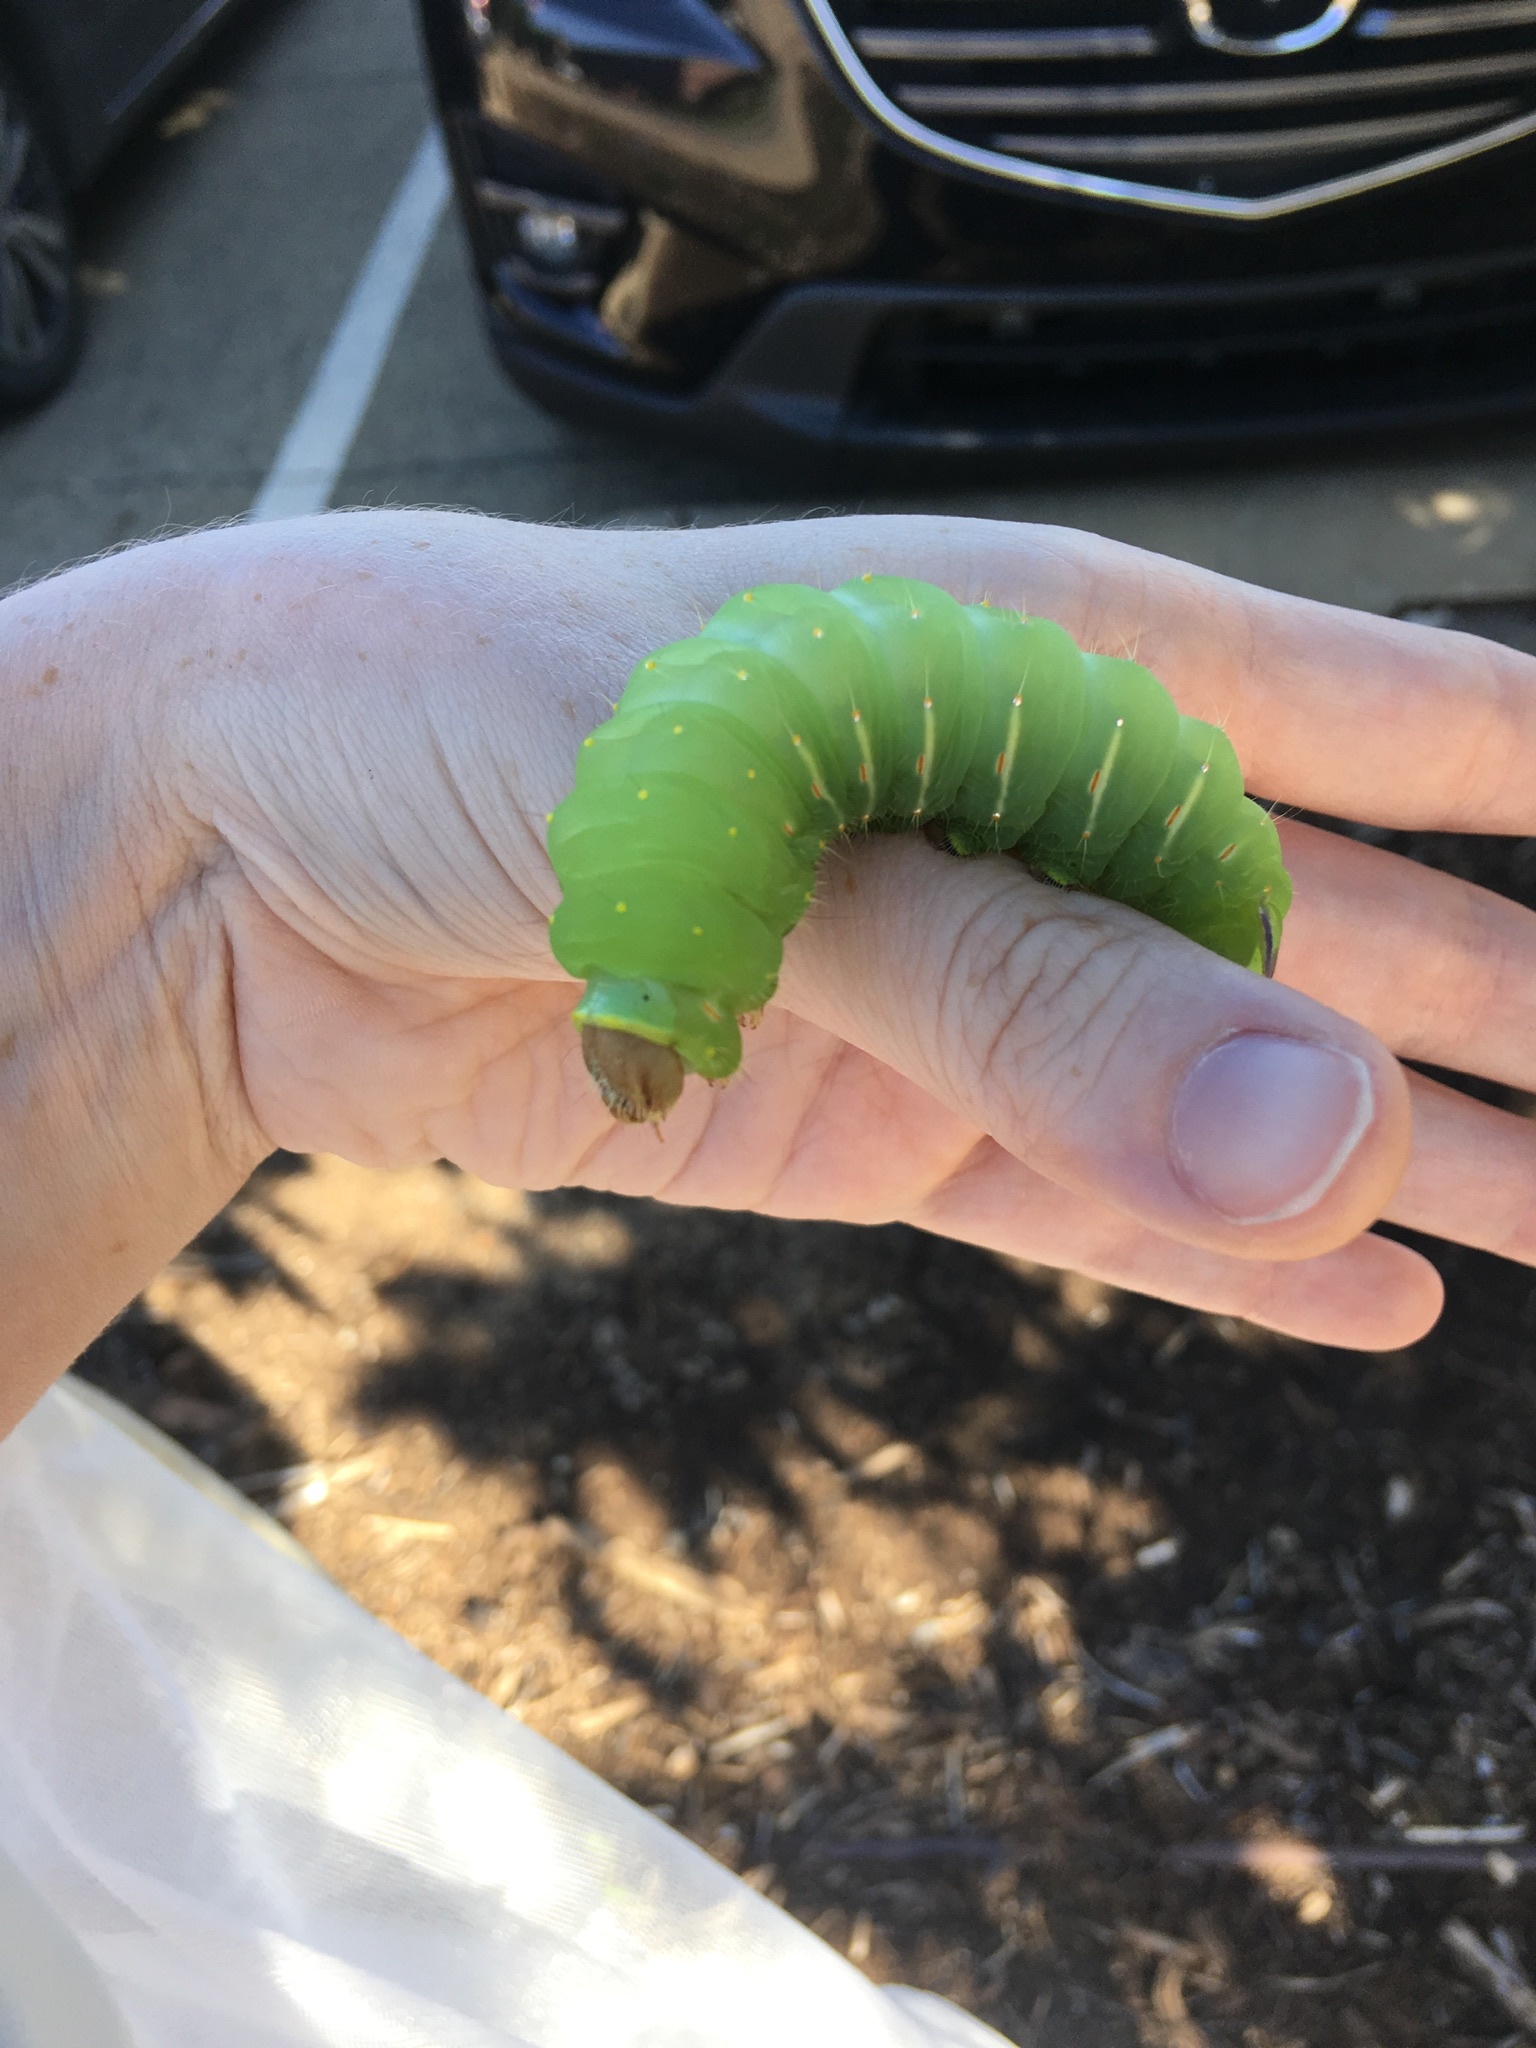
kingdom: Animalia
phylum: Arthropoda
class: Insecta
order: Lepidoptera
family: Saturniidae
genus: Antheraea
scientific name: Antheraea polyphemus
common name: Polyphemus moth
